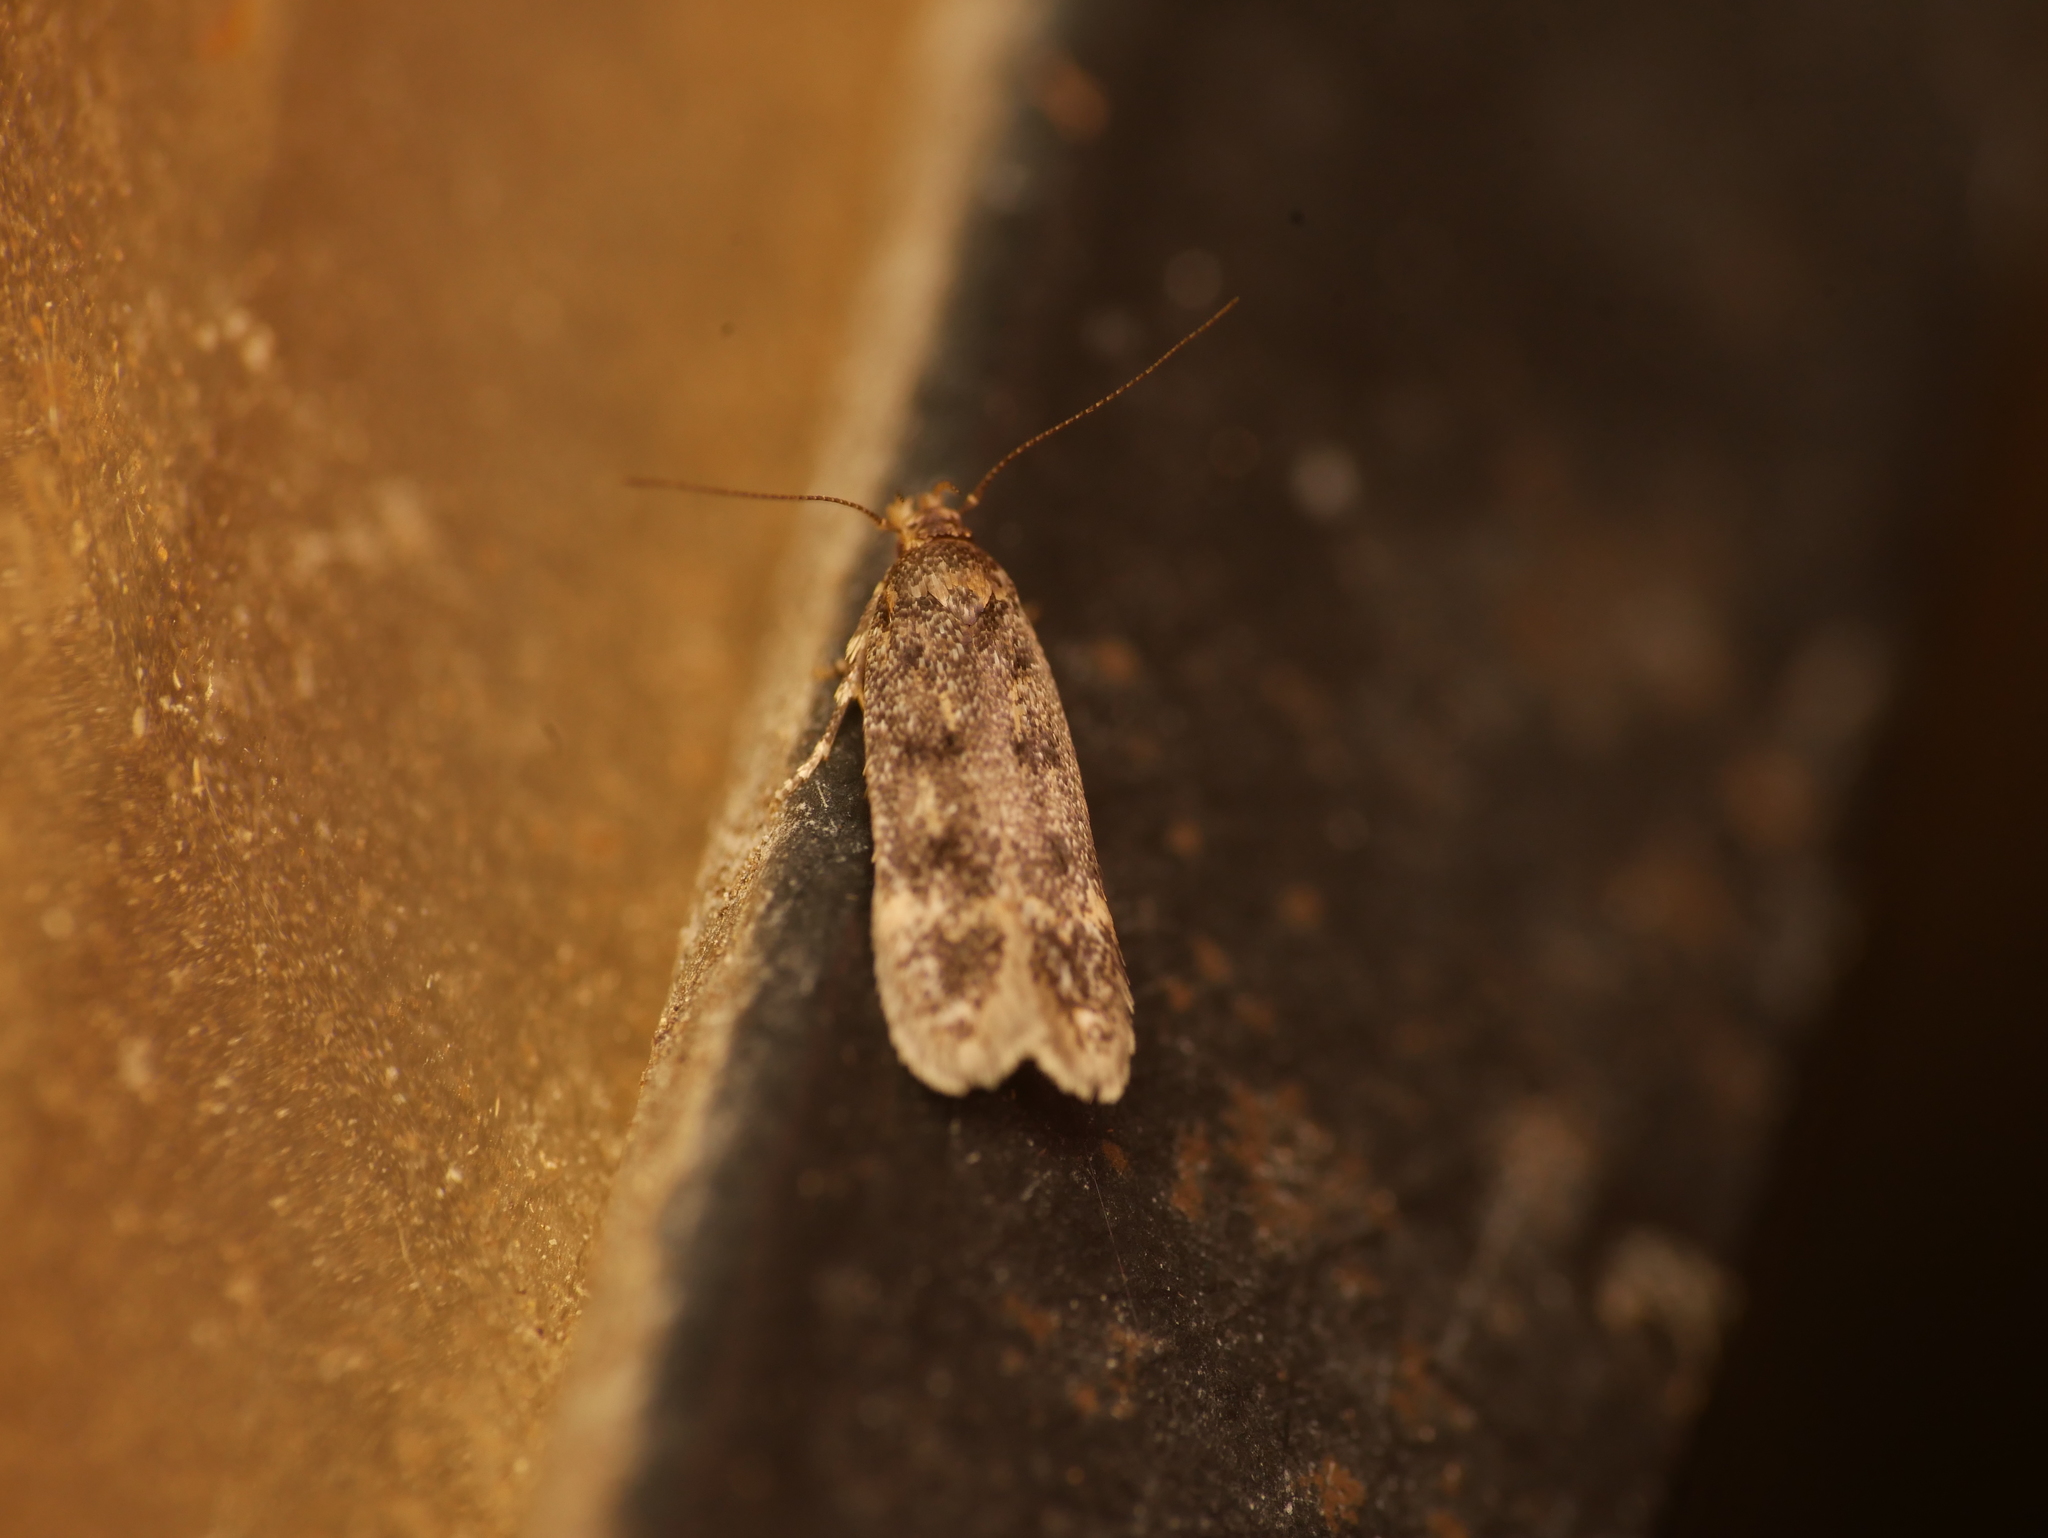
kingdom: Animalia
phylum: Arthropoda
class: Insecta
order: Lepidoptera
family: Oecophoridae
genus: Hofmannophila
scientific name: Hofmannophila pseudospretella
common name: Brown house moth
